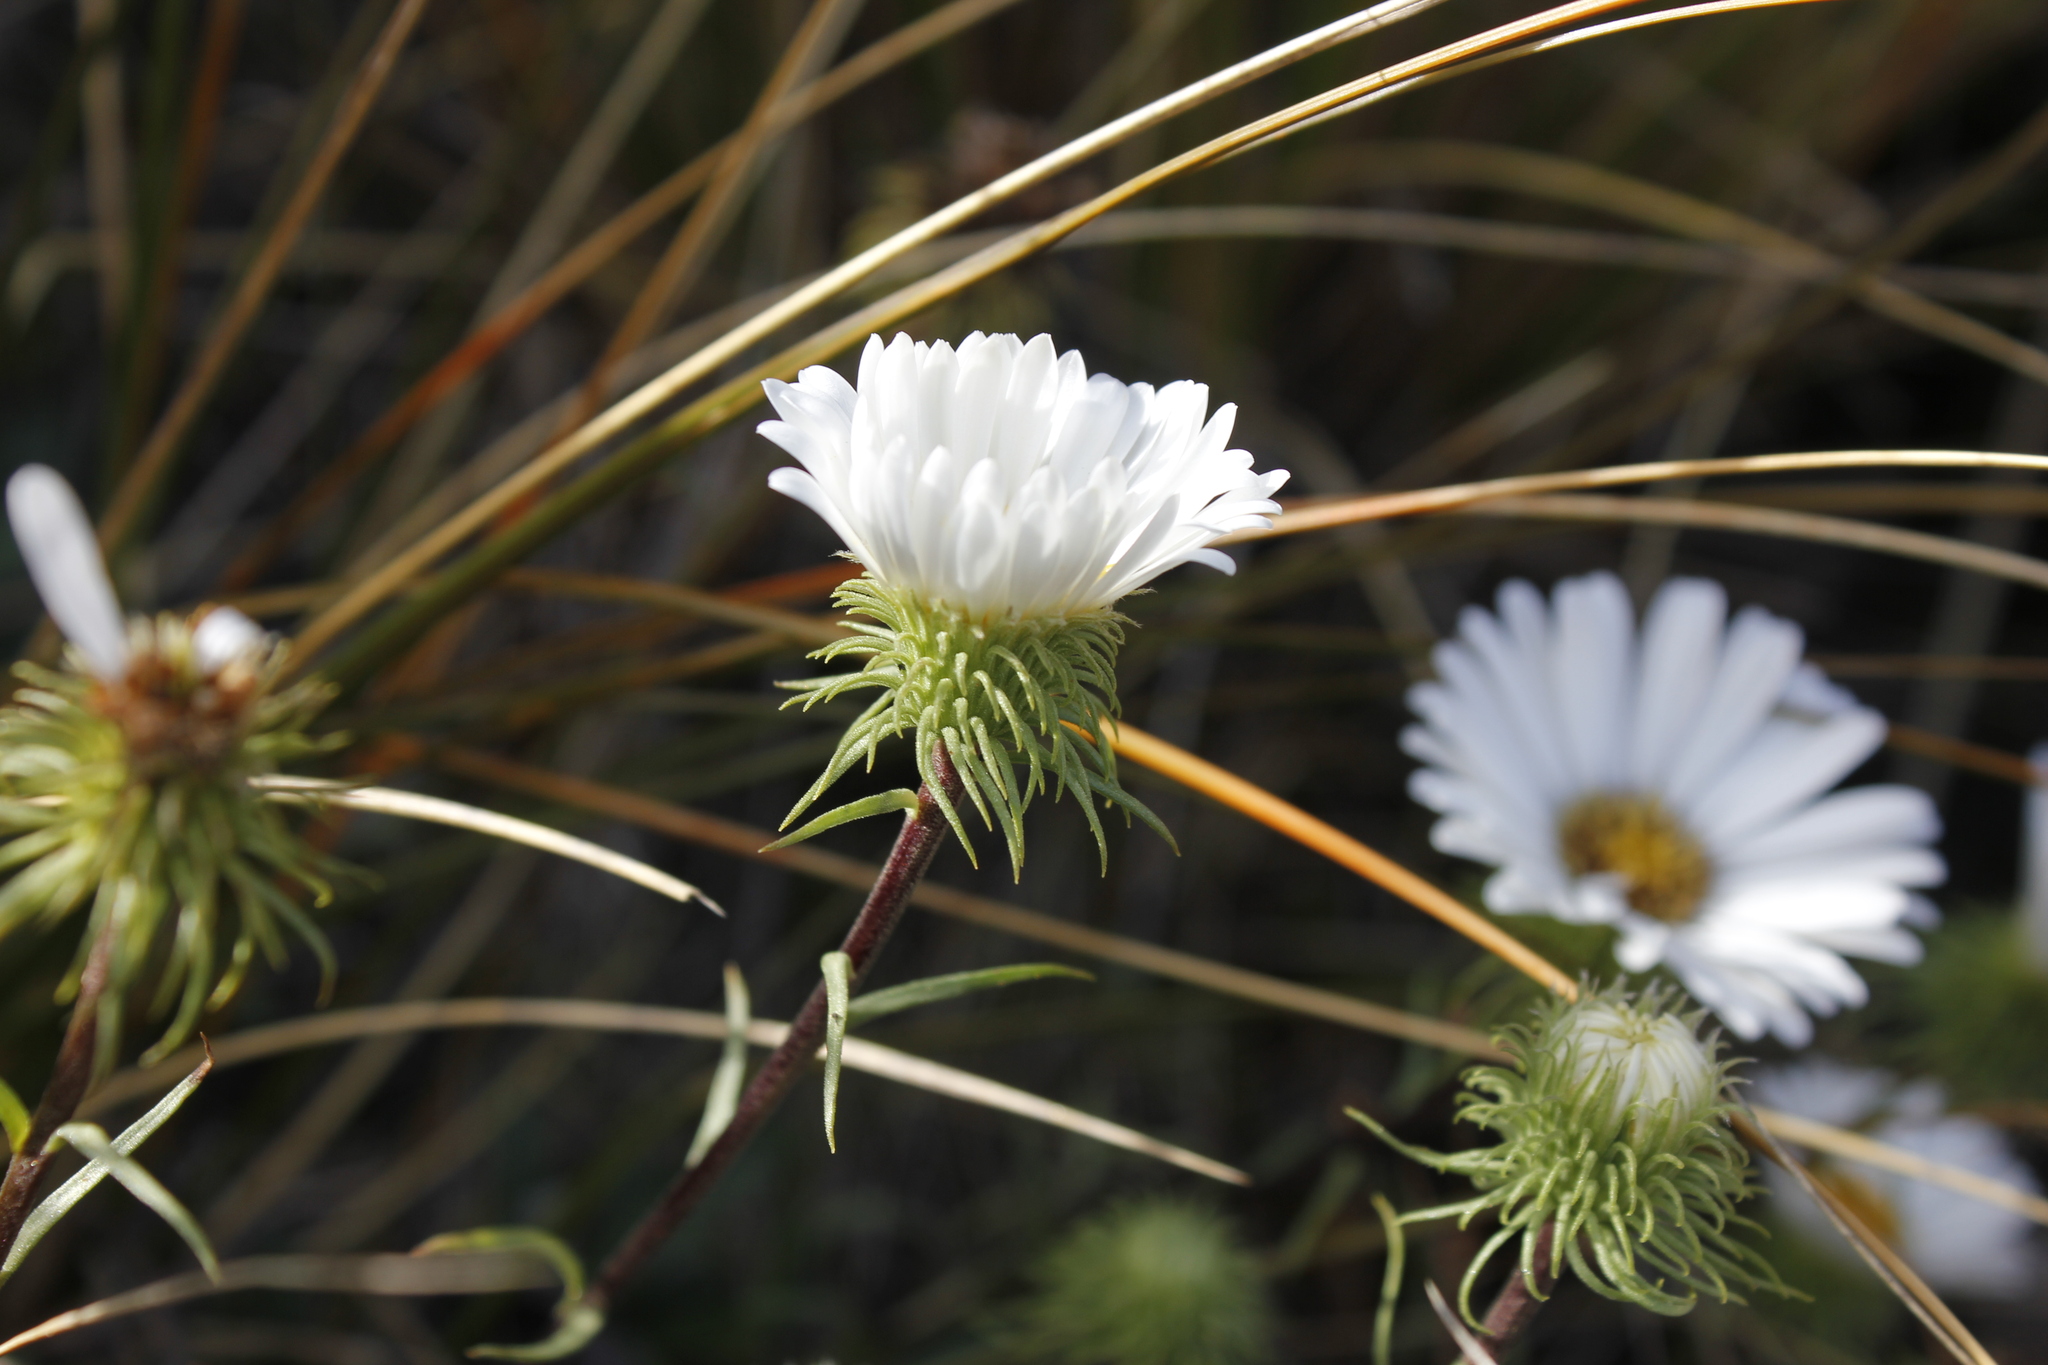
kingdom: Plantae
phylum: Tracheophyta
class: Magnoliopsida
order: Asterales
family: Asteraceae
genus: Celmisia
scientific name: Celmisia durietzii
